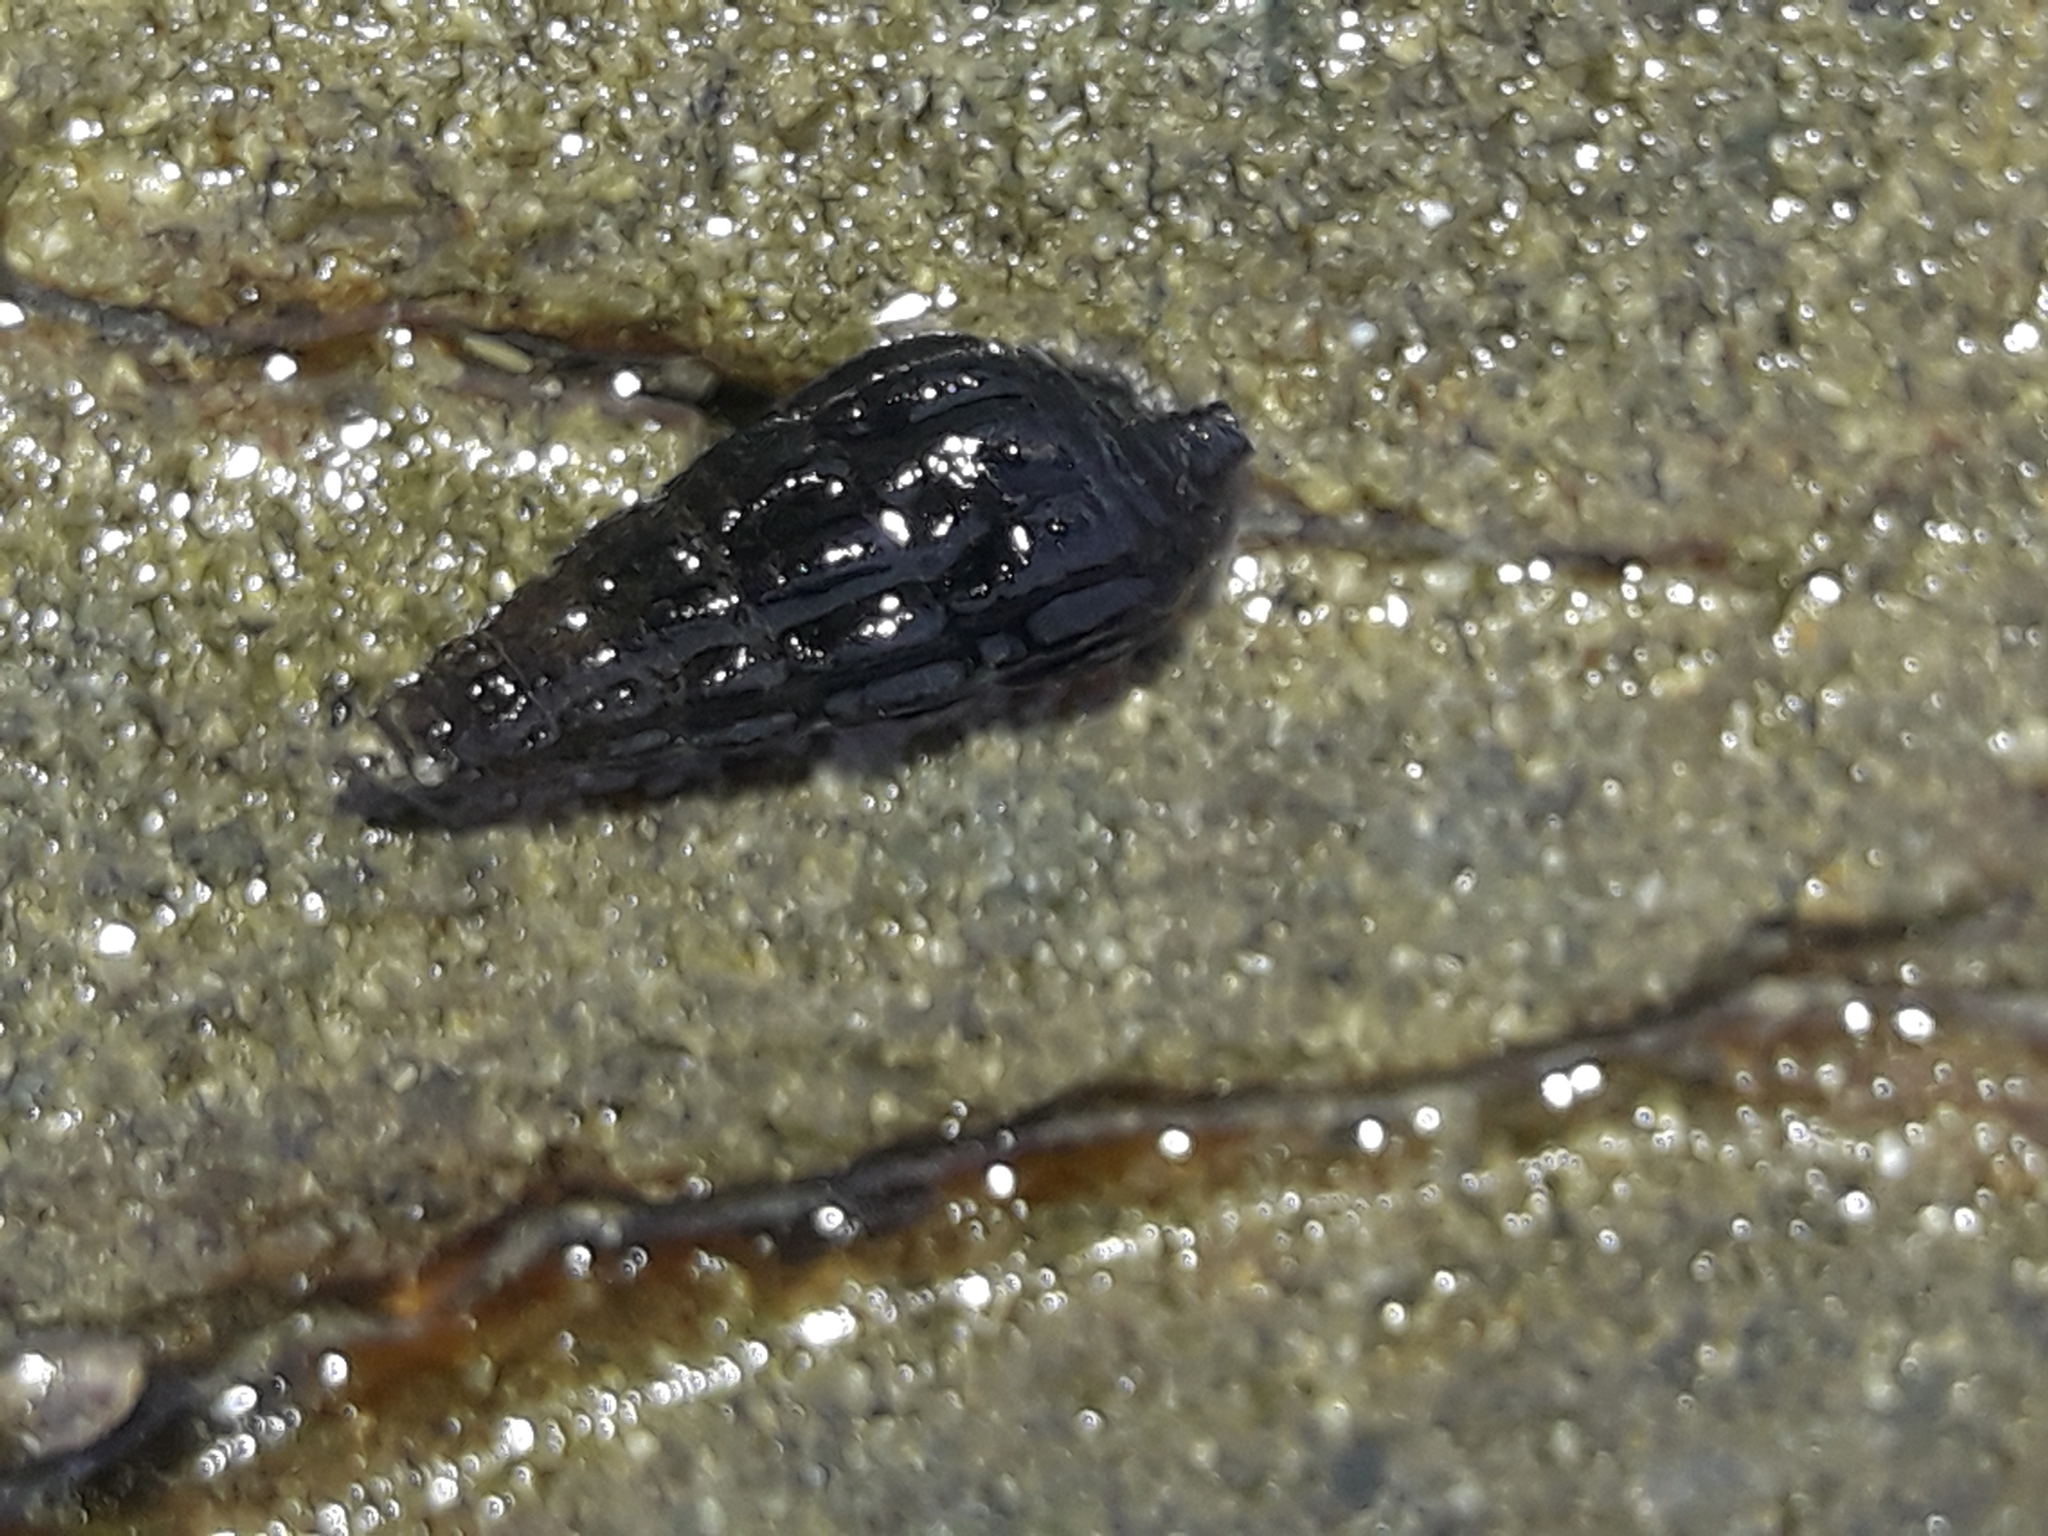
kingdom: Animalia
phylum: Mollusca
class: Gastropoda
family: Batillariidae
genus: Zeacumantus
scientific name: Zeacumantus subcarinatus
